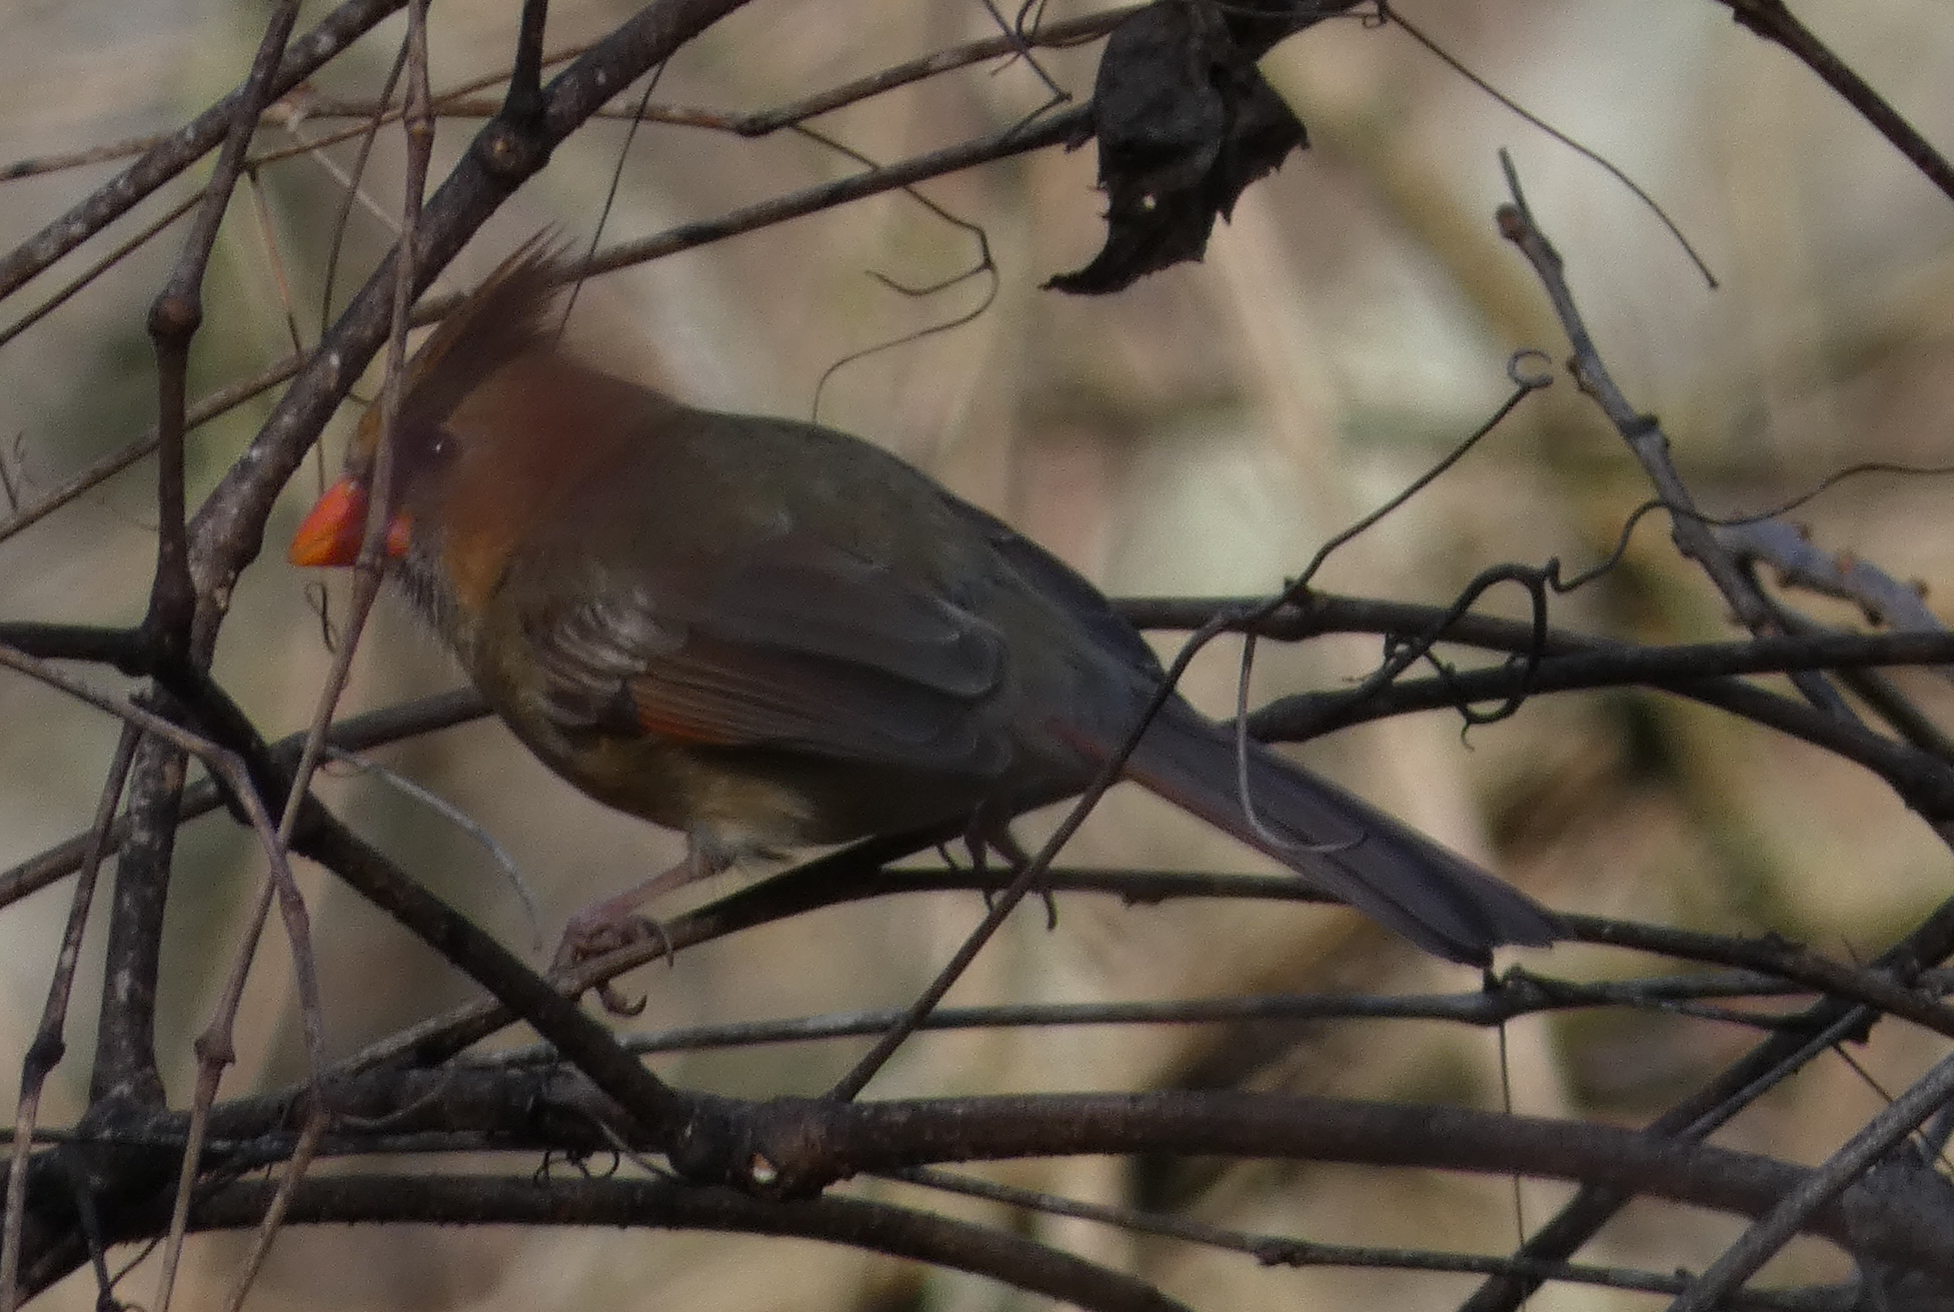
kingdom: Animalia
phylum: Chordata
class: Aves
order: Passeriformes
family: Cardinalidae
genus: Cardinalis
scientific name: Cardinalis cardinalis
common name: Northern cardinal
